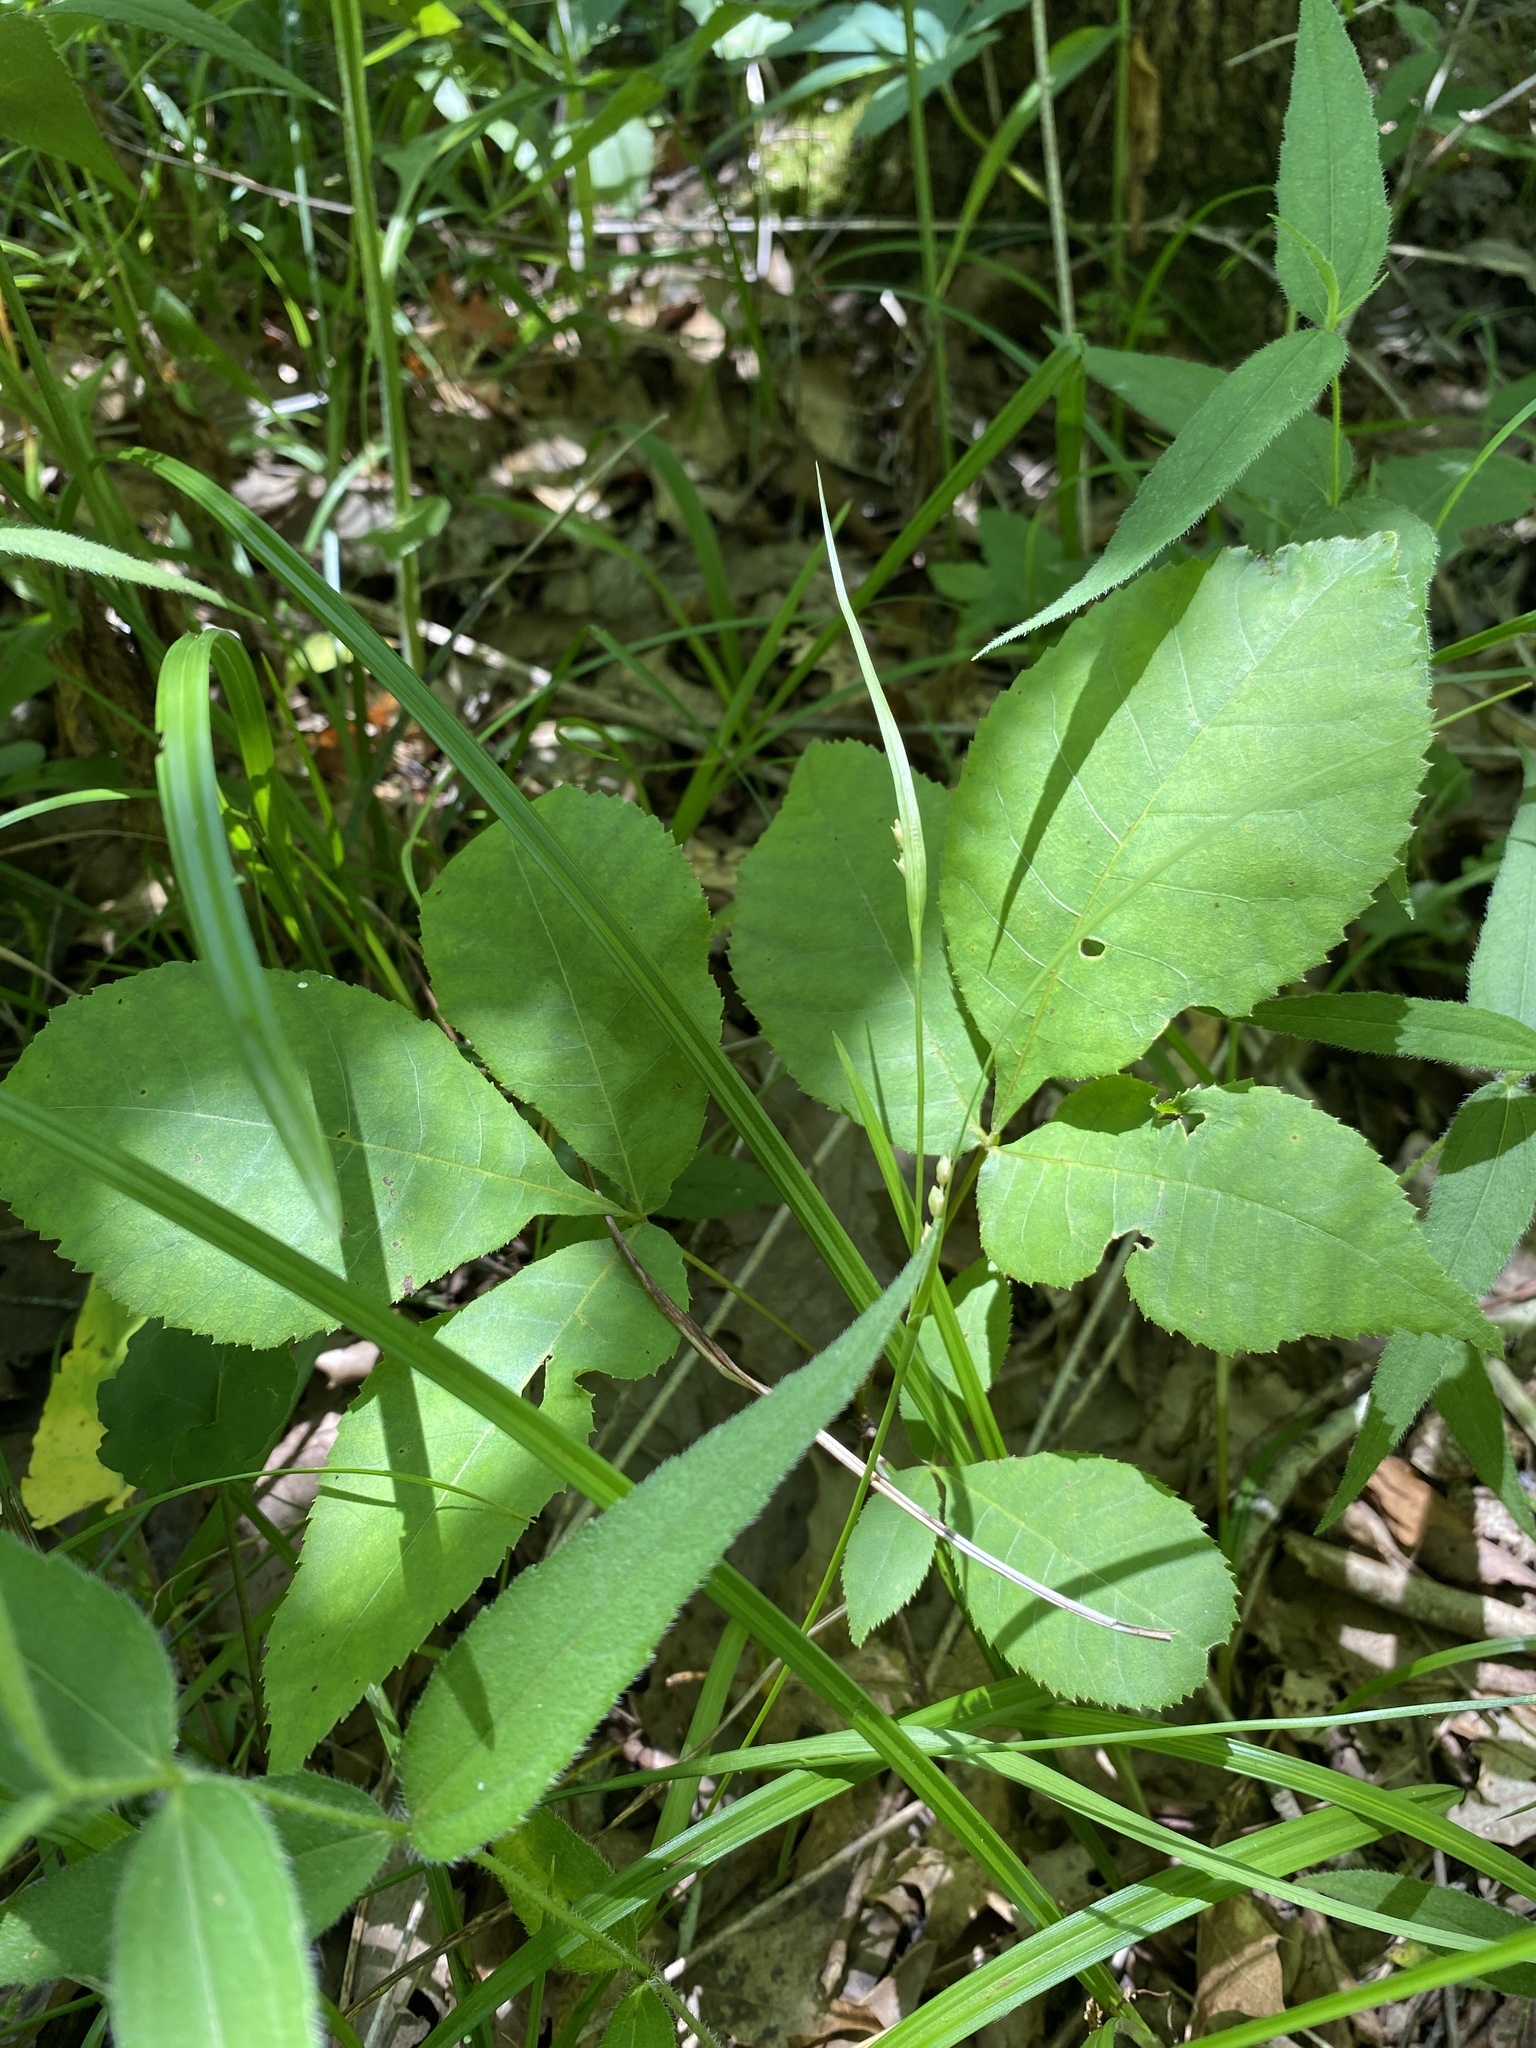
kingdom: Plantae
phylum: Tracheophyta
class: Liliopsida
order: Poales
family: Cyperaceae
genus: Carex
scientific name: Carex digitalis
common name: Slender wood sedge
